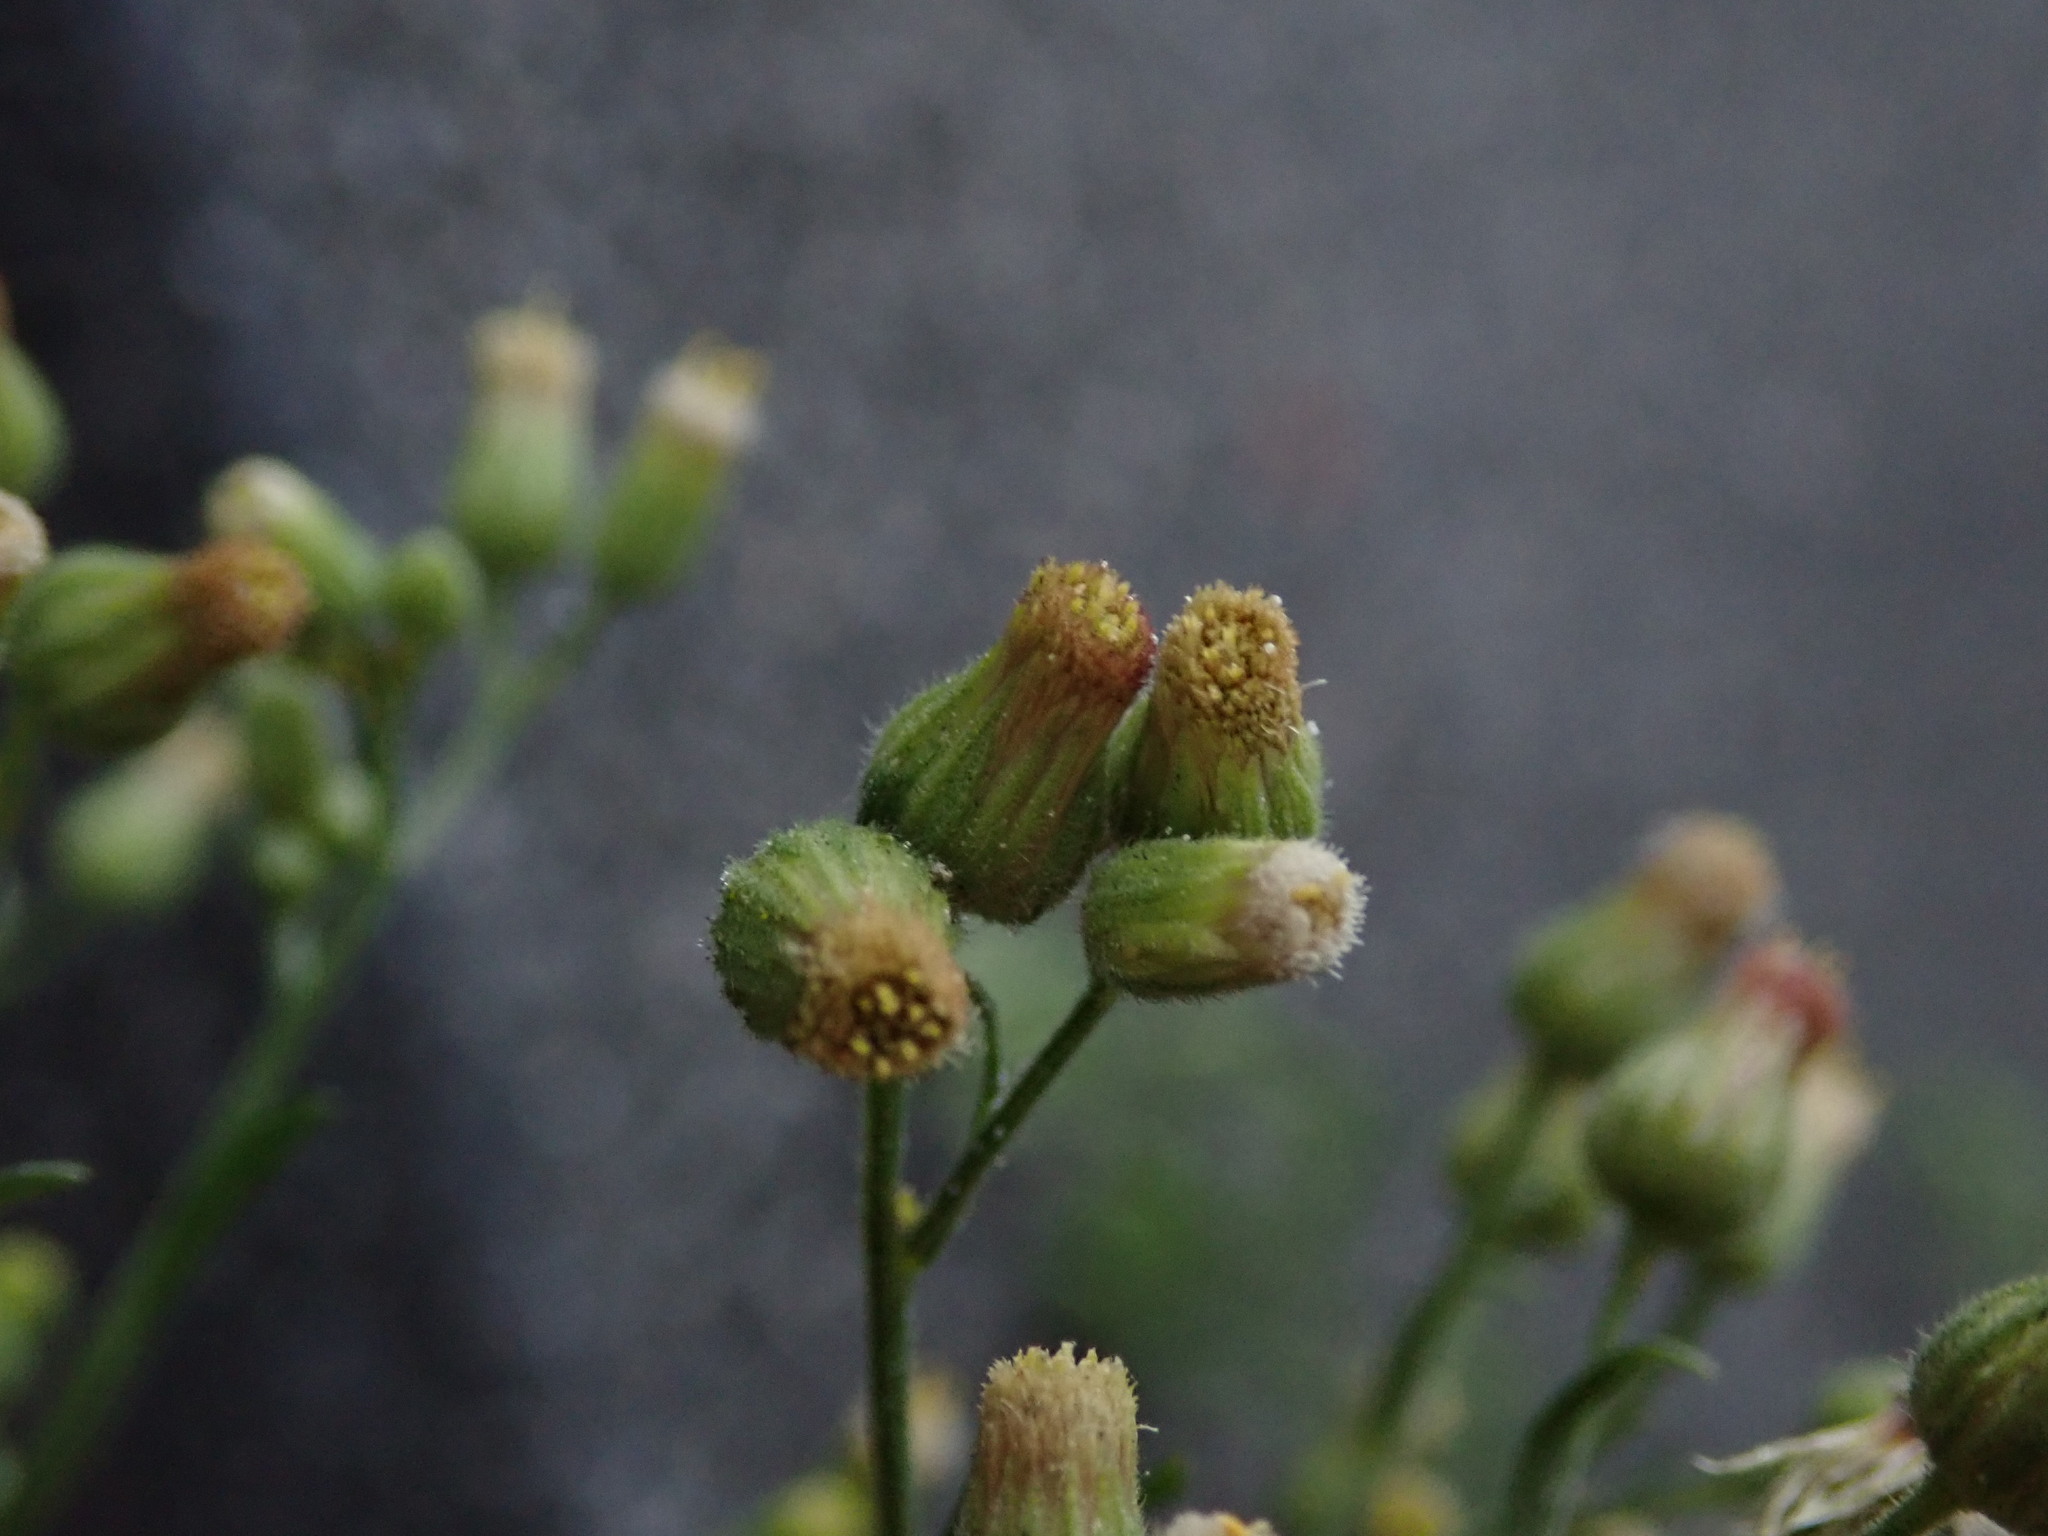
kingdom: Plantae
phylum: Tracheophyta
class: Magnoliopsida
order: Asterales
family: Asteraceae
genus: Erigeron
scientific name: Erigeron sumatrensis
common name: Daisy
